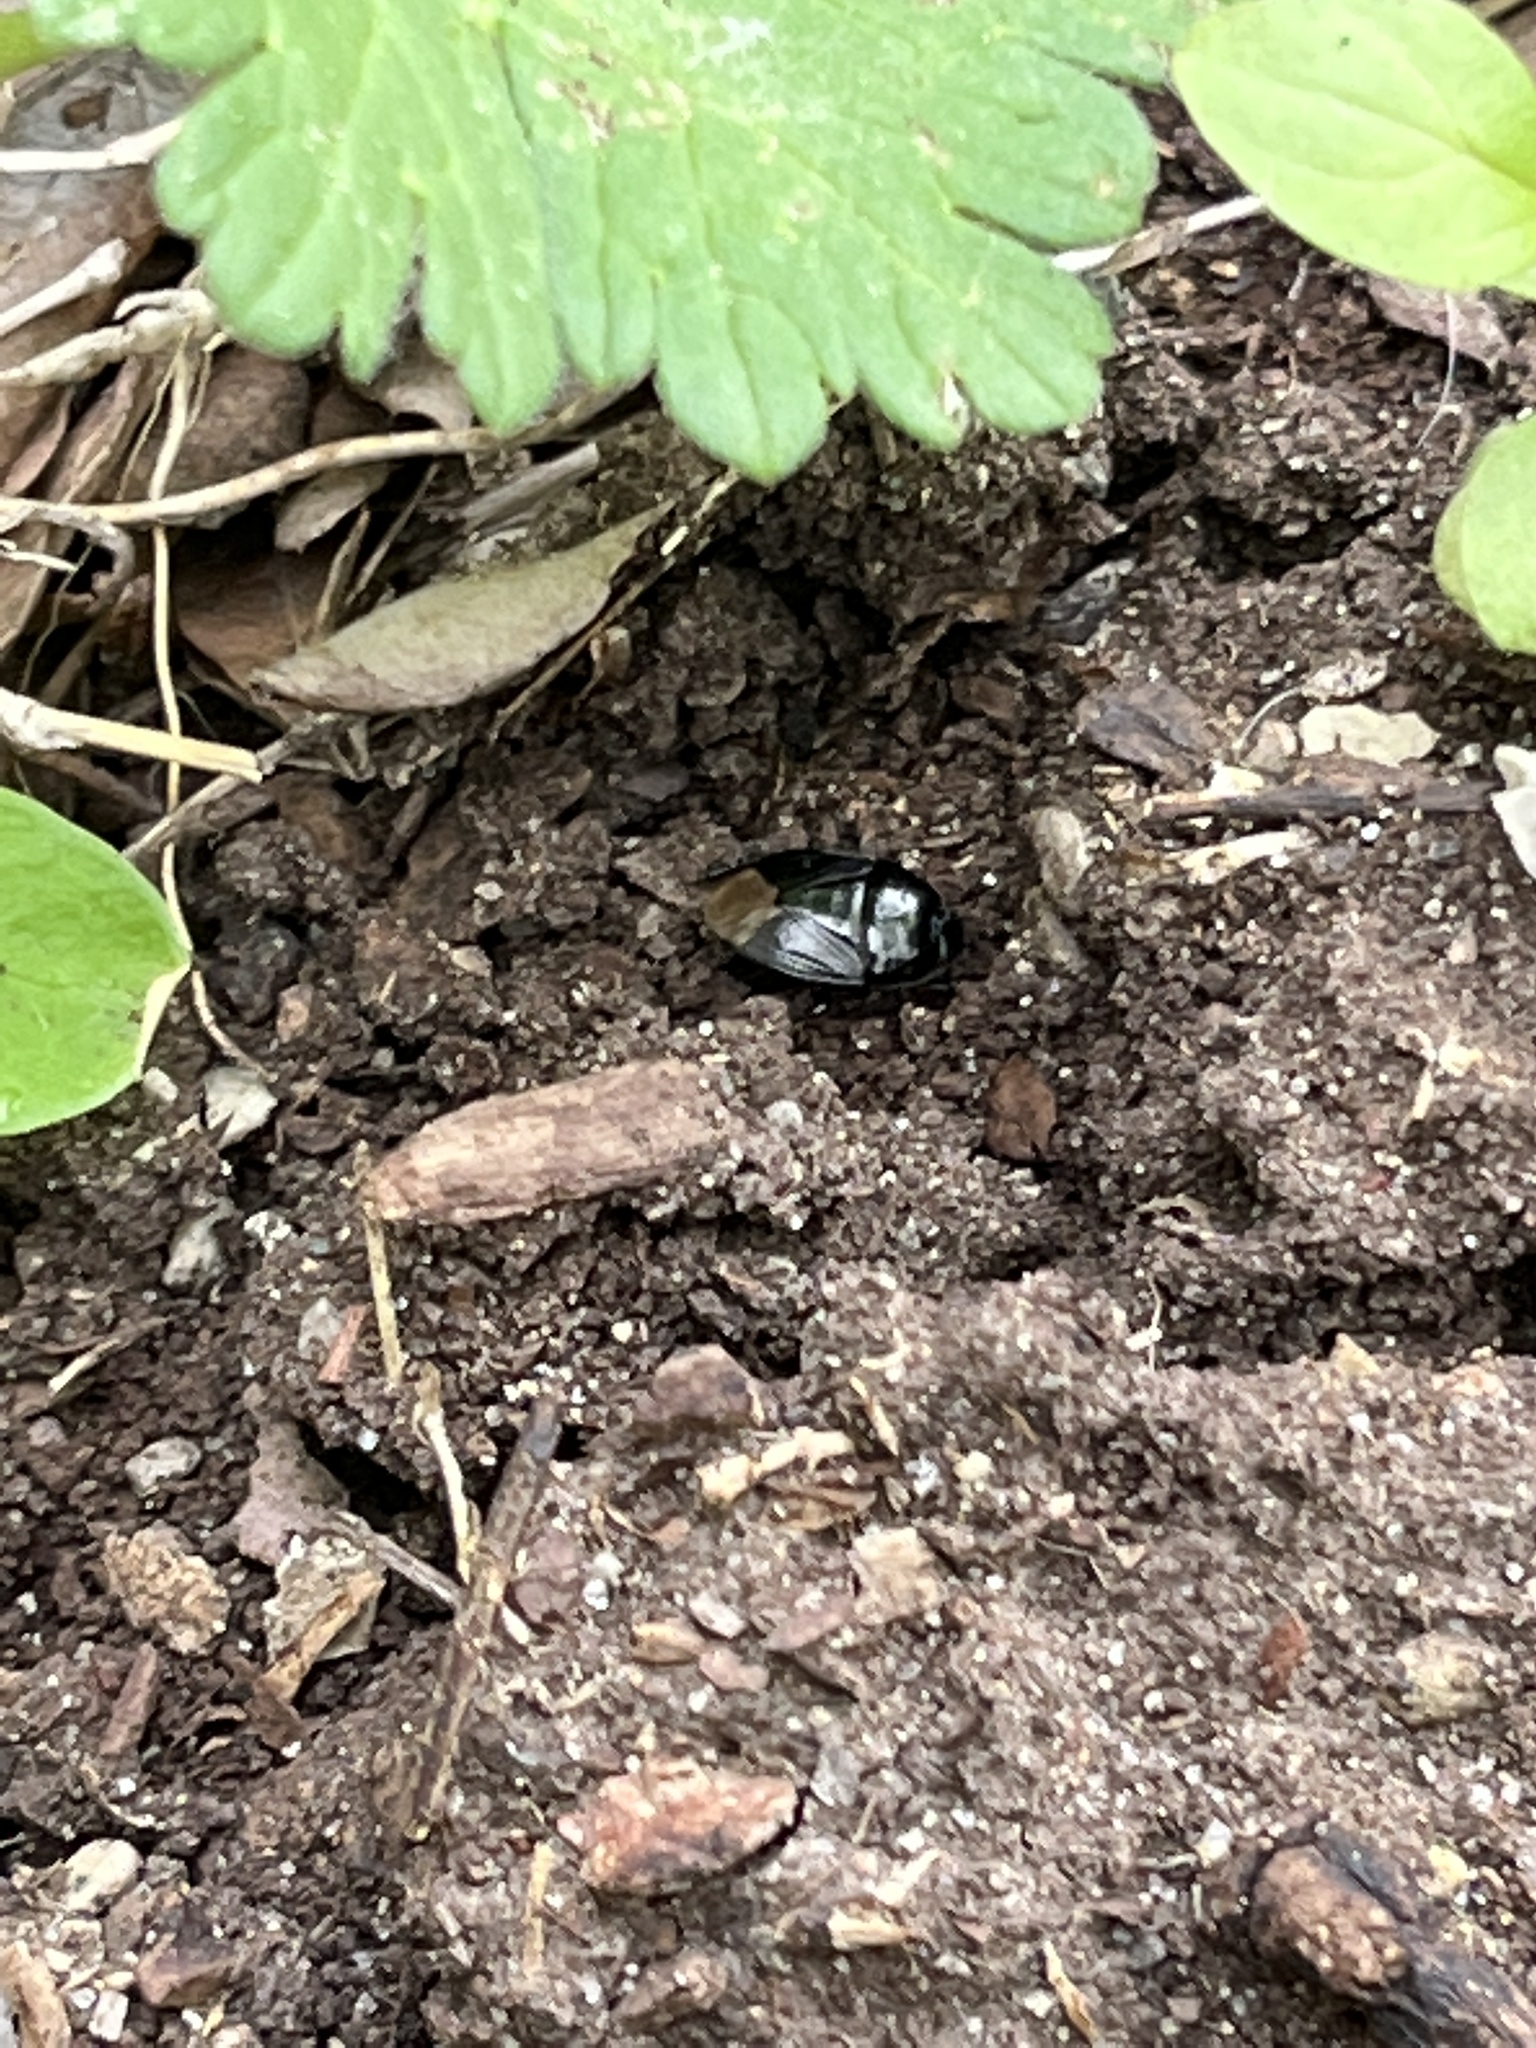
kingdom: Animalia
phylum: Arthropoda
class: Insecta
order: Hemiptera
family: Cydnidae
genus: Pangaeus
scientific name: Pangaeus bilineatus
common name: Burrower bug
